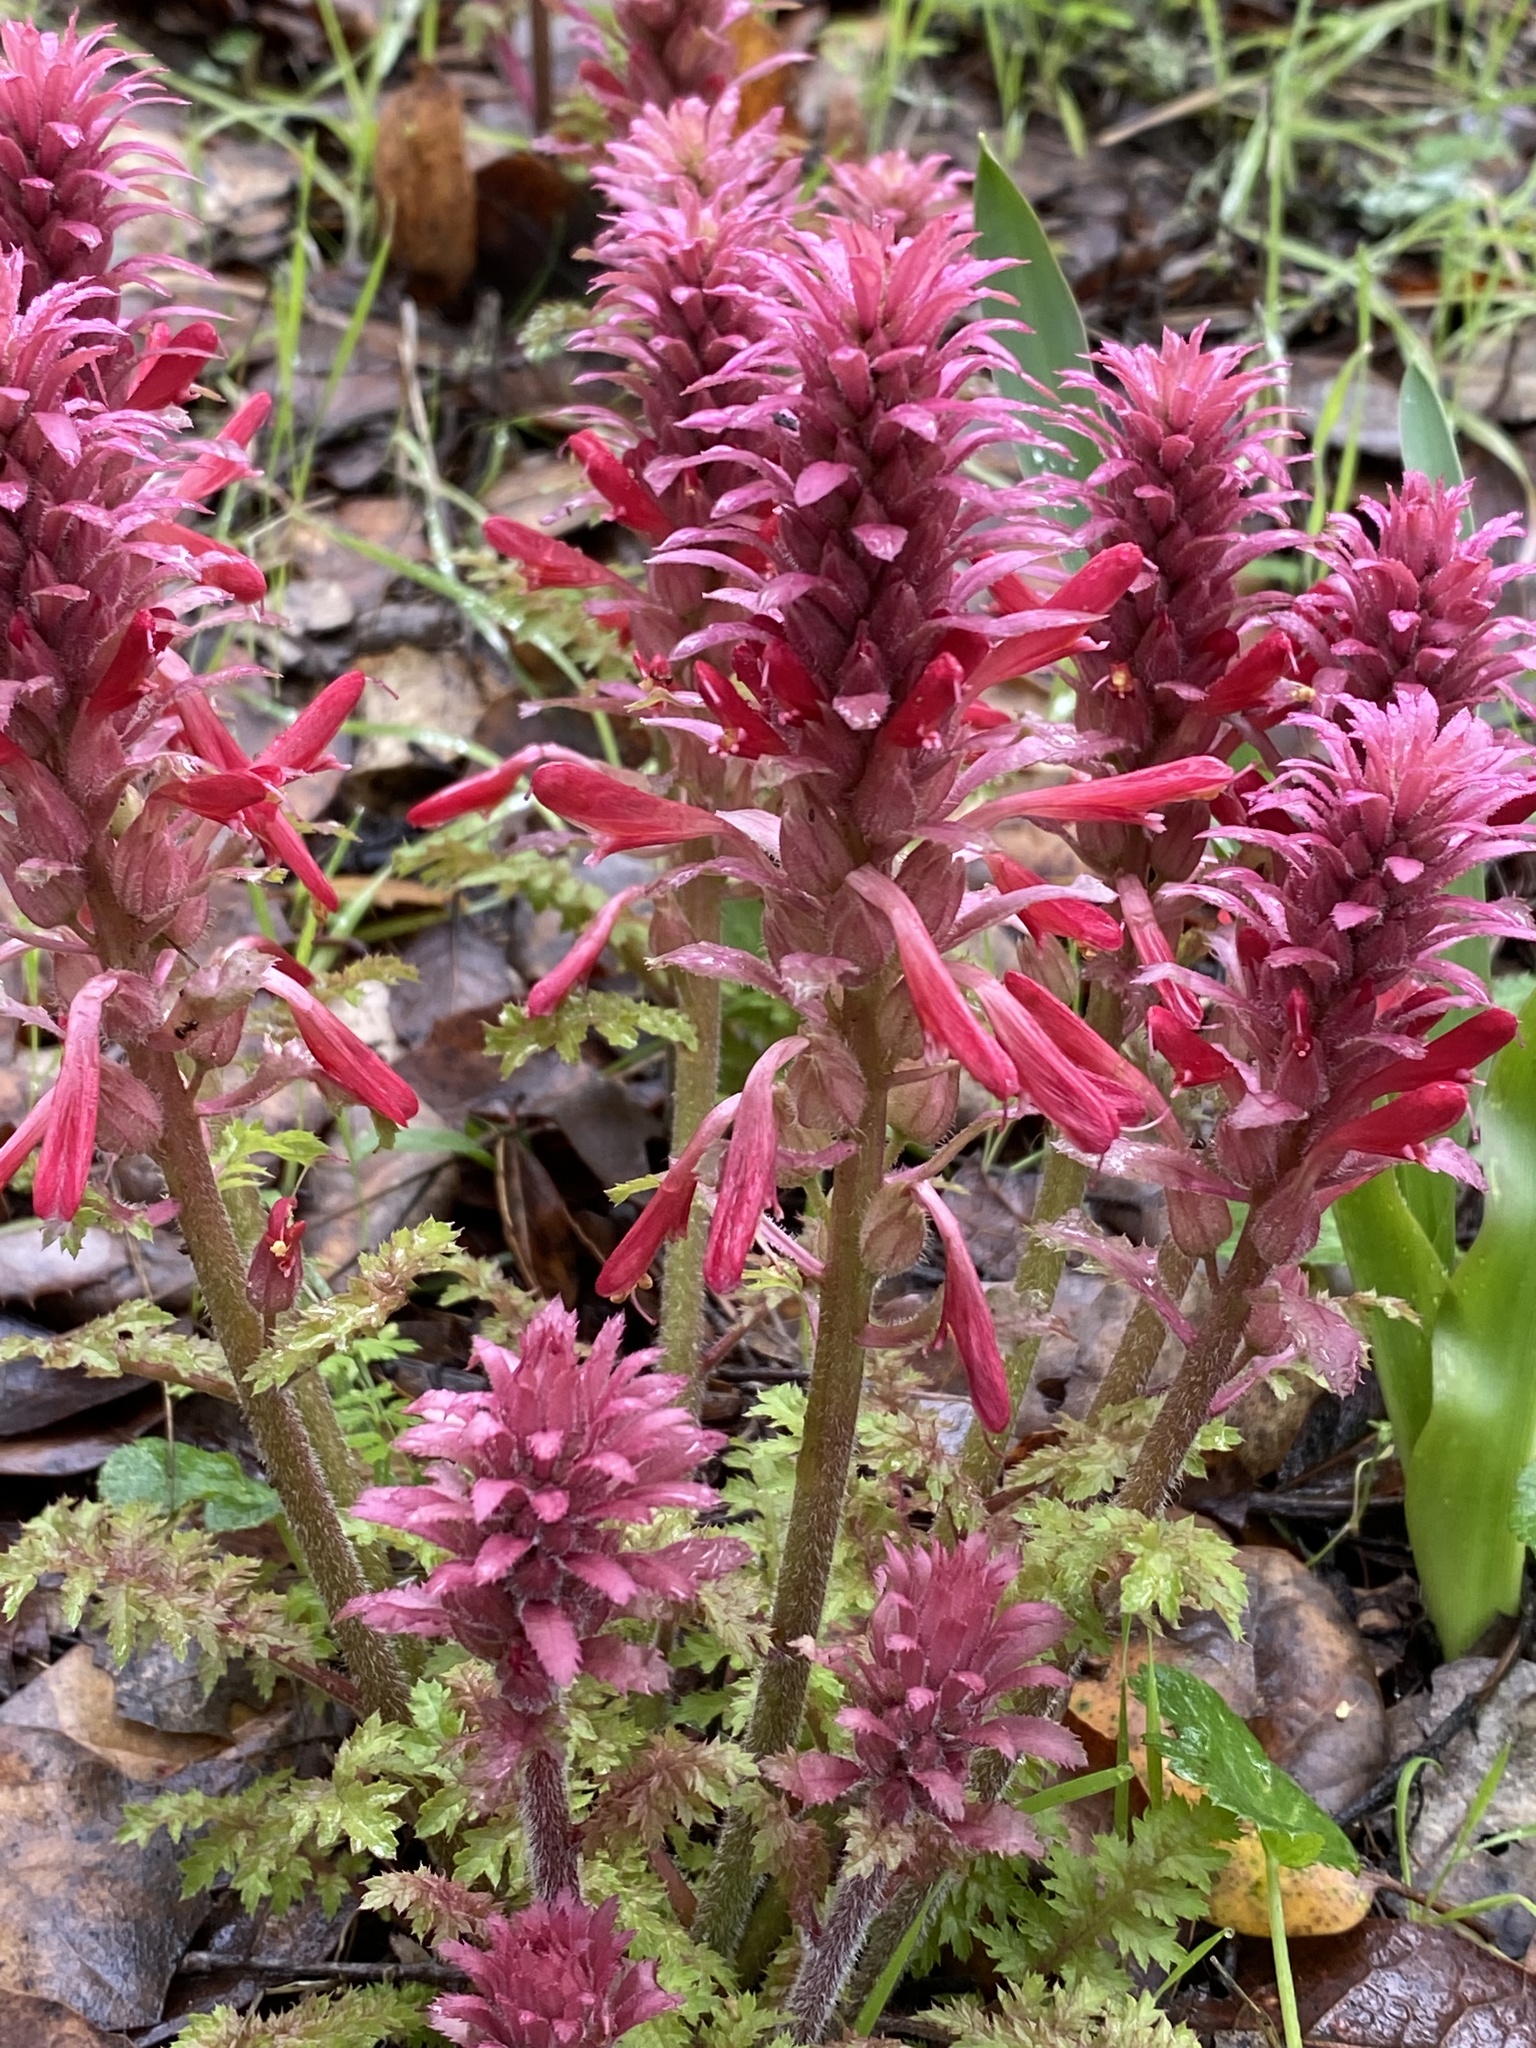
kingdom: Plantae
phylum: Tracheophyta
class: Magnoliopsida
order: Lamiales
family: Orobanchaceae
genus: Pedicularis
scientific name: Pedicularis densiflora
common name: Indian warrior
